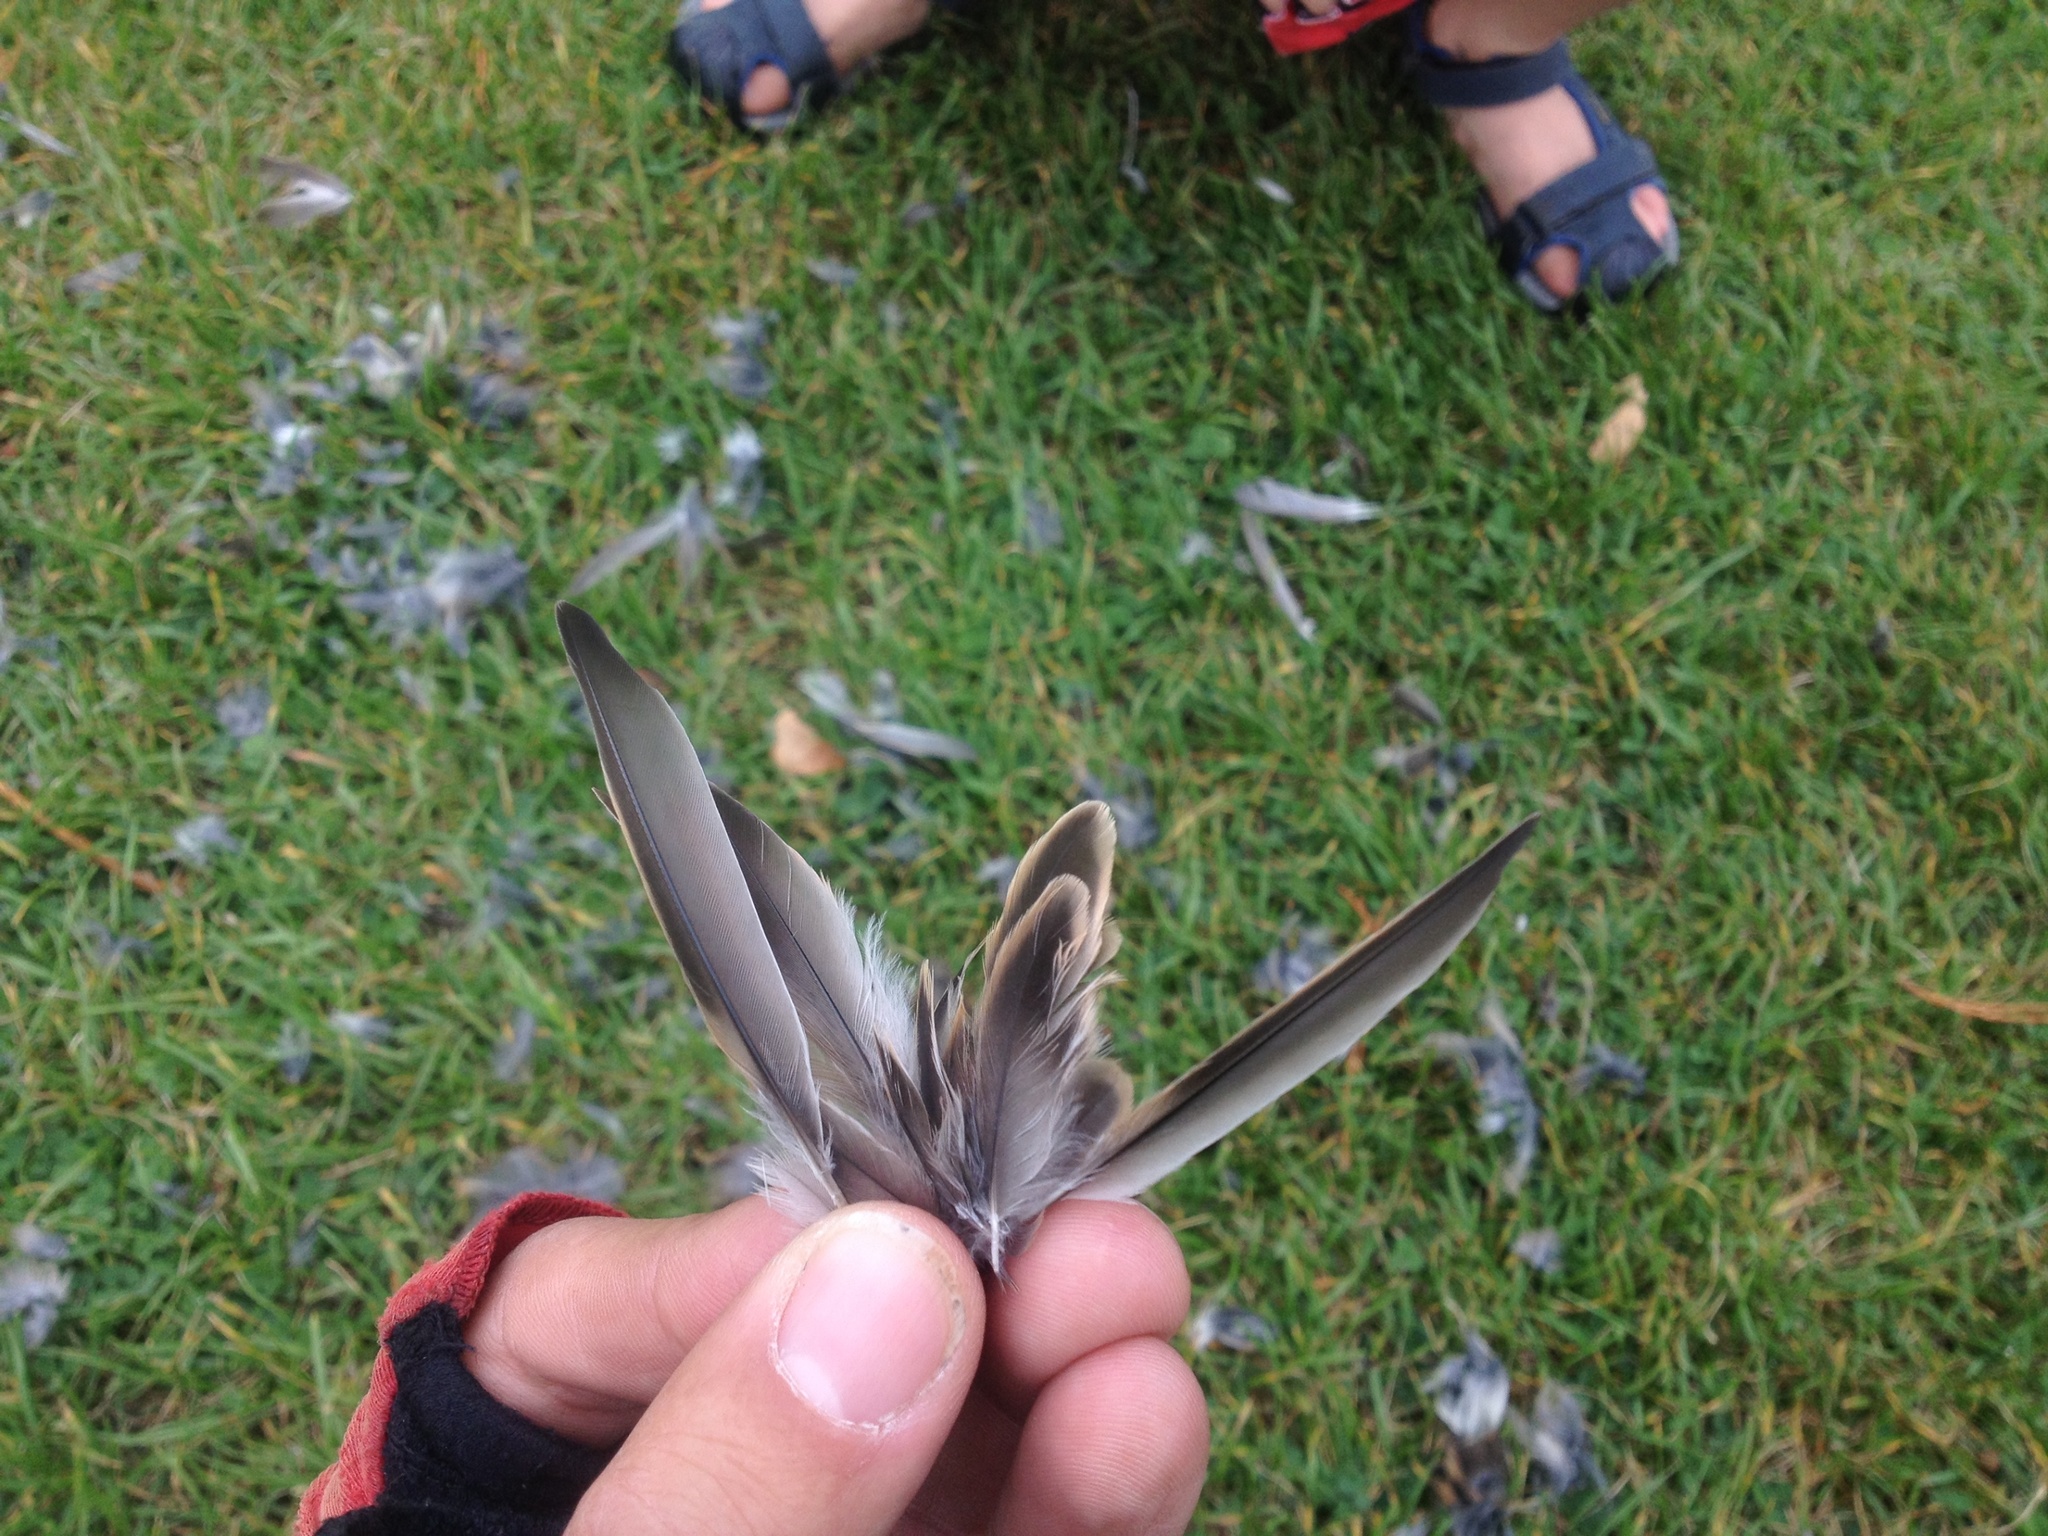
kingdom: Animalia
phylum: Chordata
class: Aves
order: Passeriformes
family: Passeridae
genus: Passer
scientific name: Passer domesticus
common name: House sparrow
